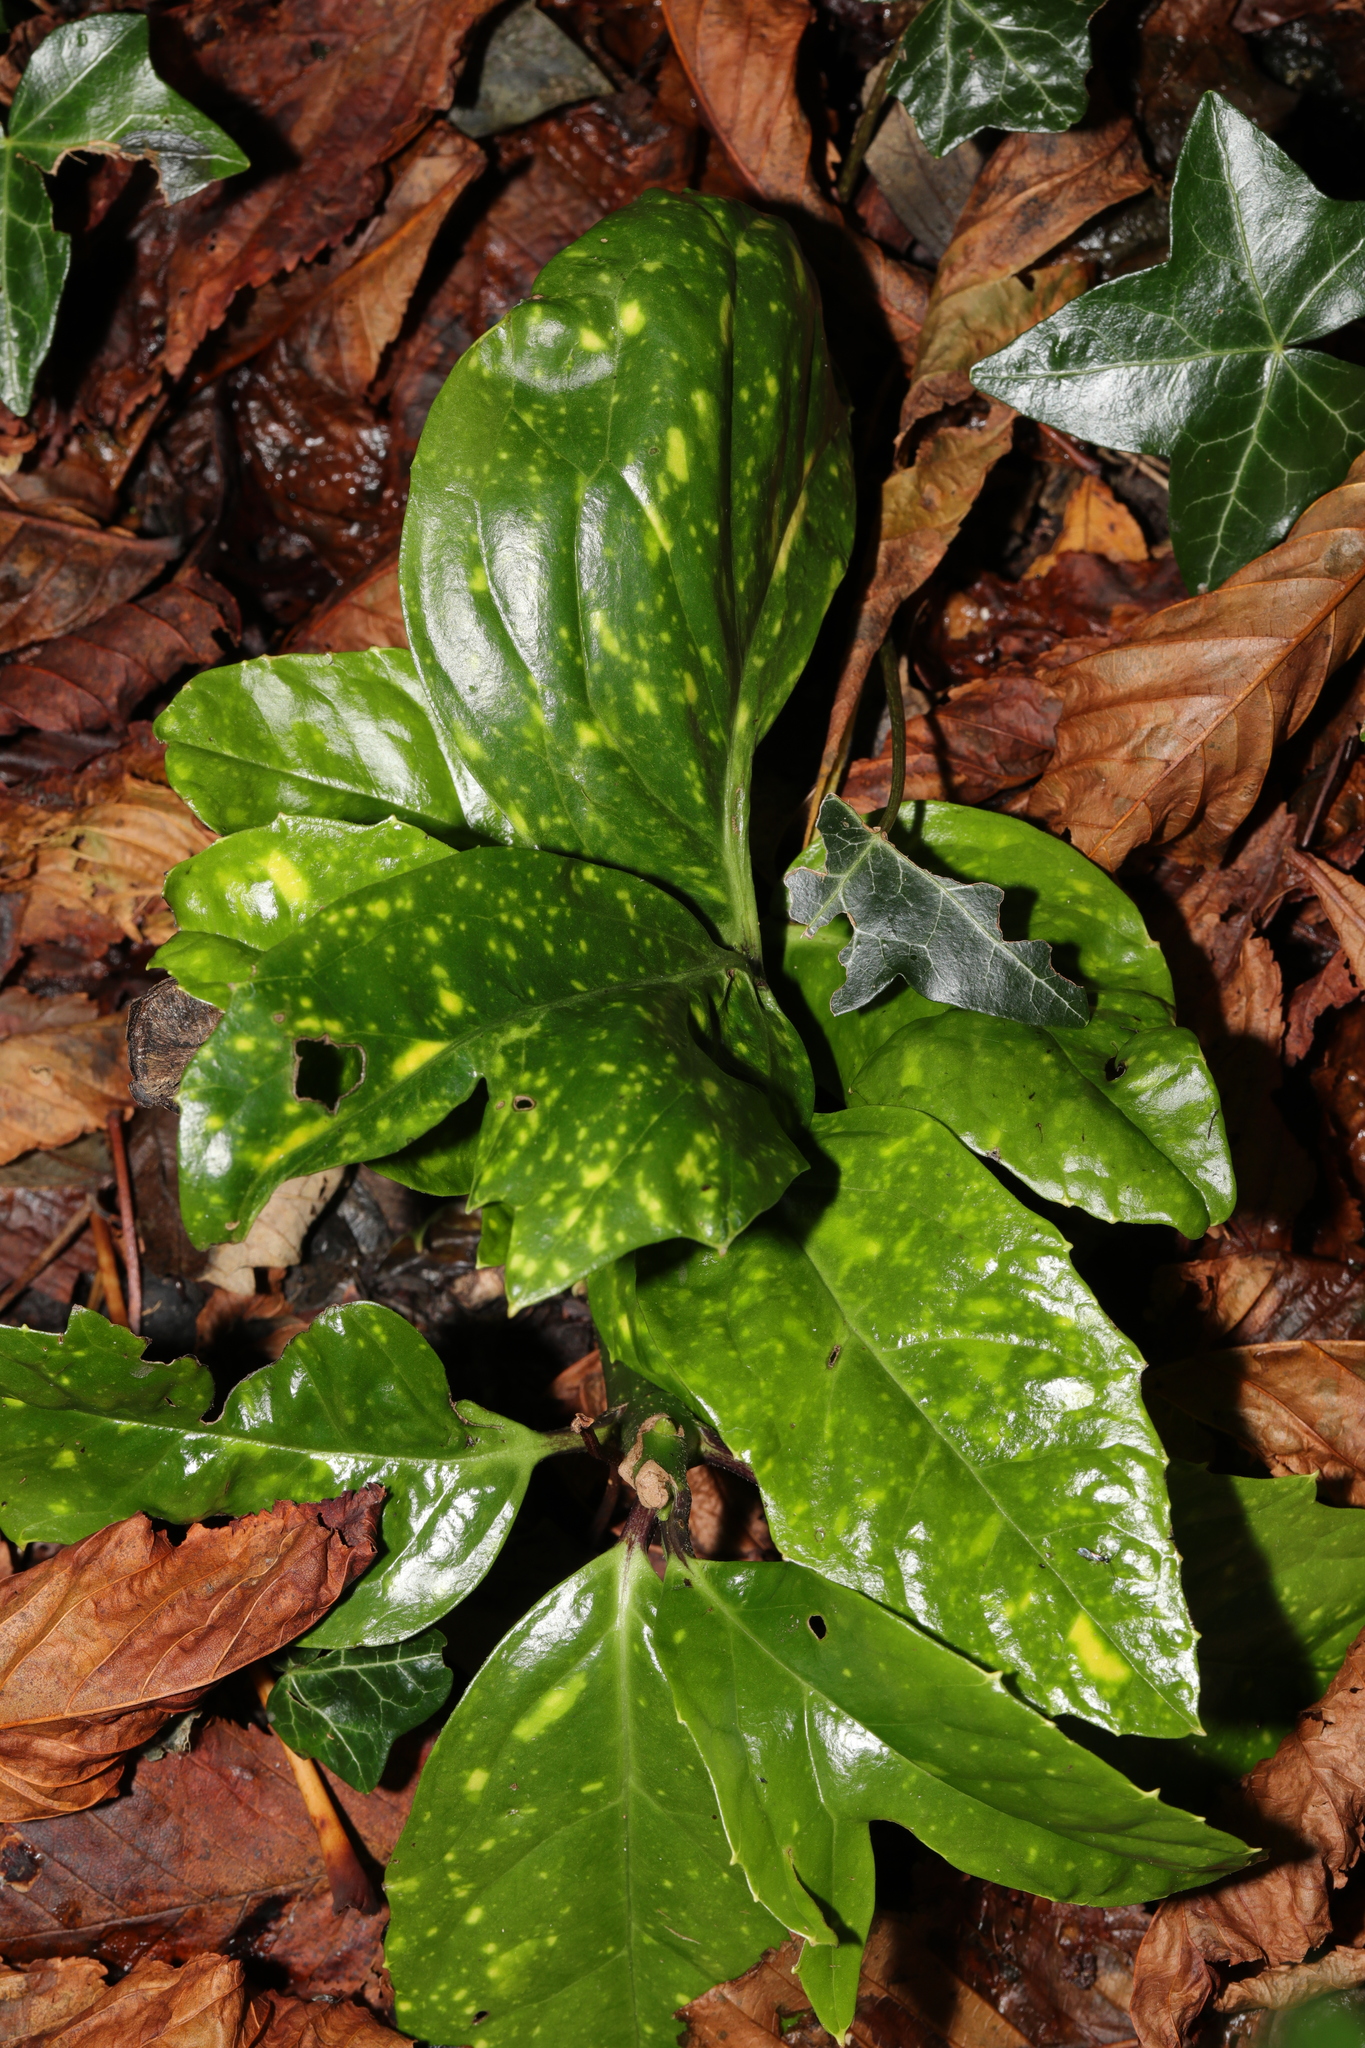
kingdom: Plantae
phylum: Tracheophyta
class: Magnoliopsida
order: Garryales
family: Garryaceae
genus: Aucuba
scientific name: Aucuba japonica
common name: Spotted-laurel
